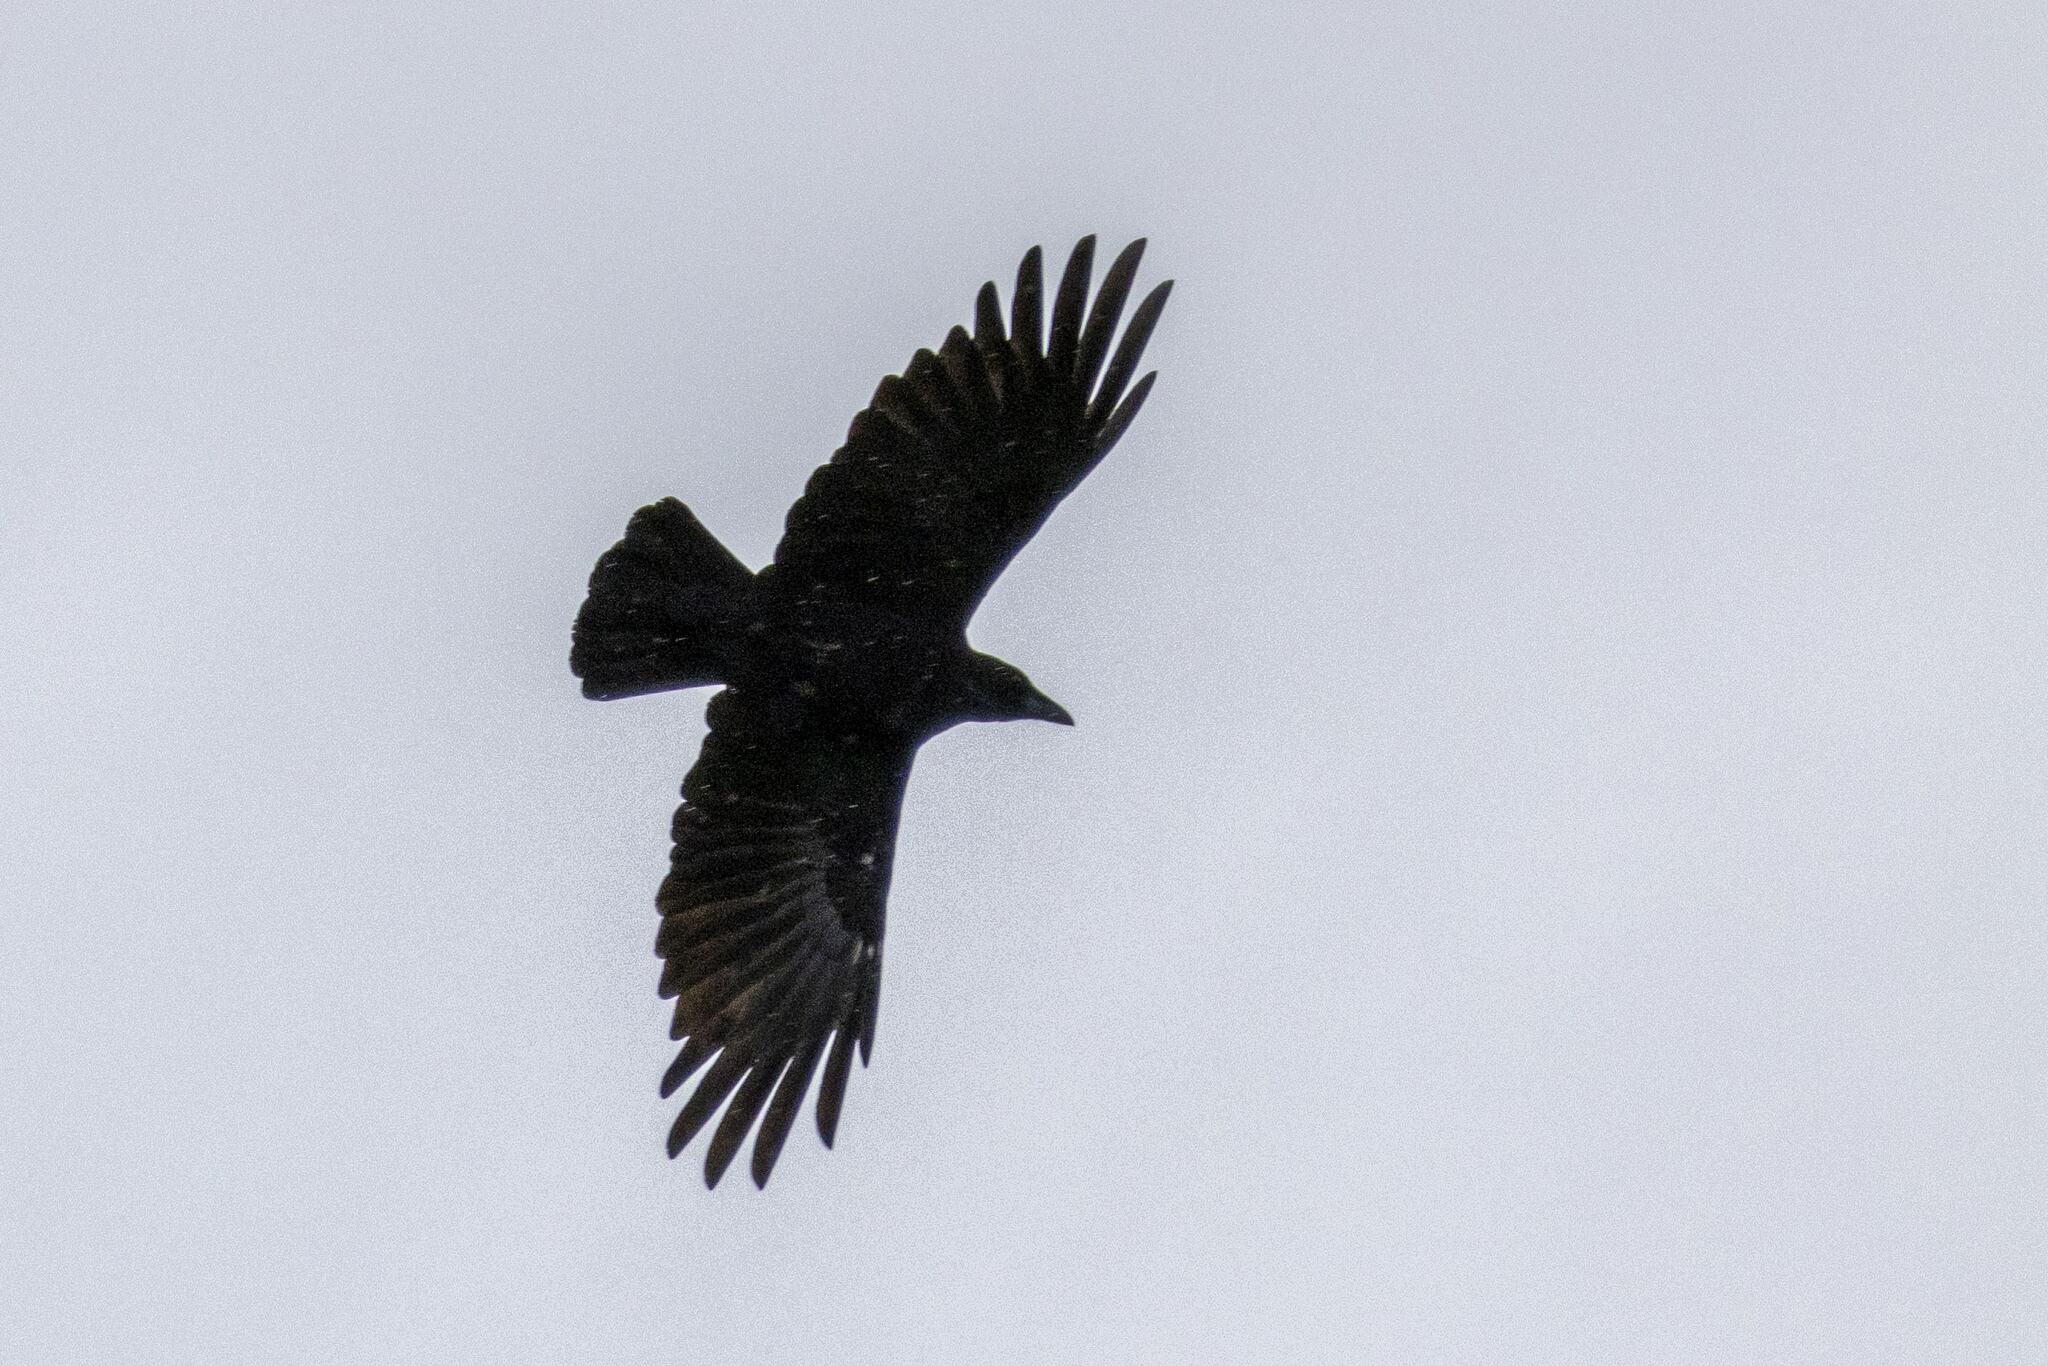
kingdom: Animalia
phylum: Chordata
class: Aves
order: Passeriformes
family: Corvidae
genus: Corvus
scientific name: Corvus corone
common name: Carrion crow
